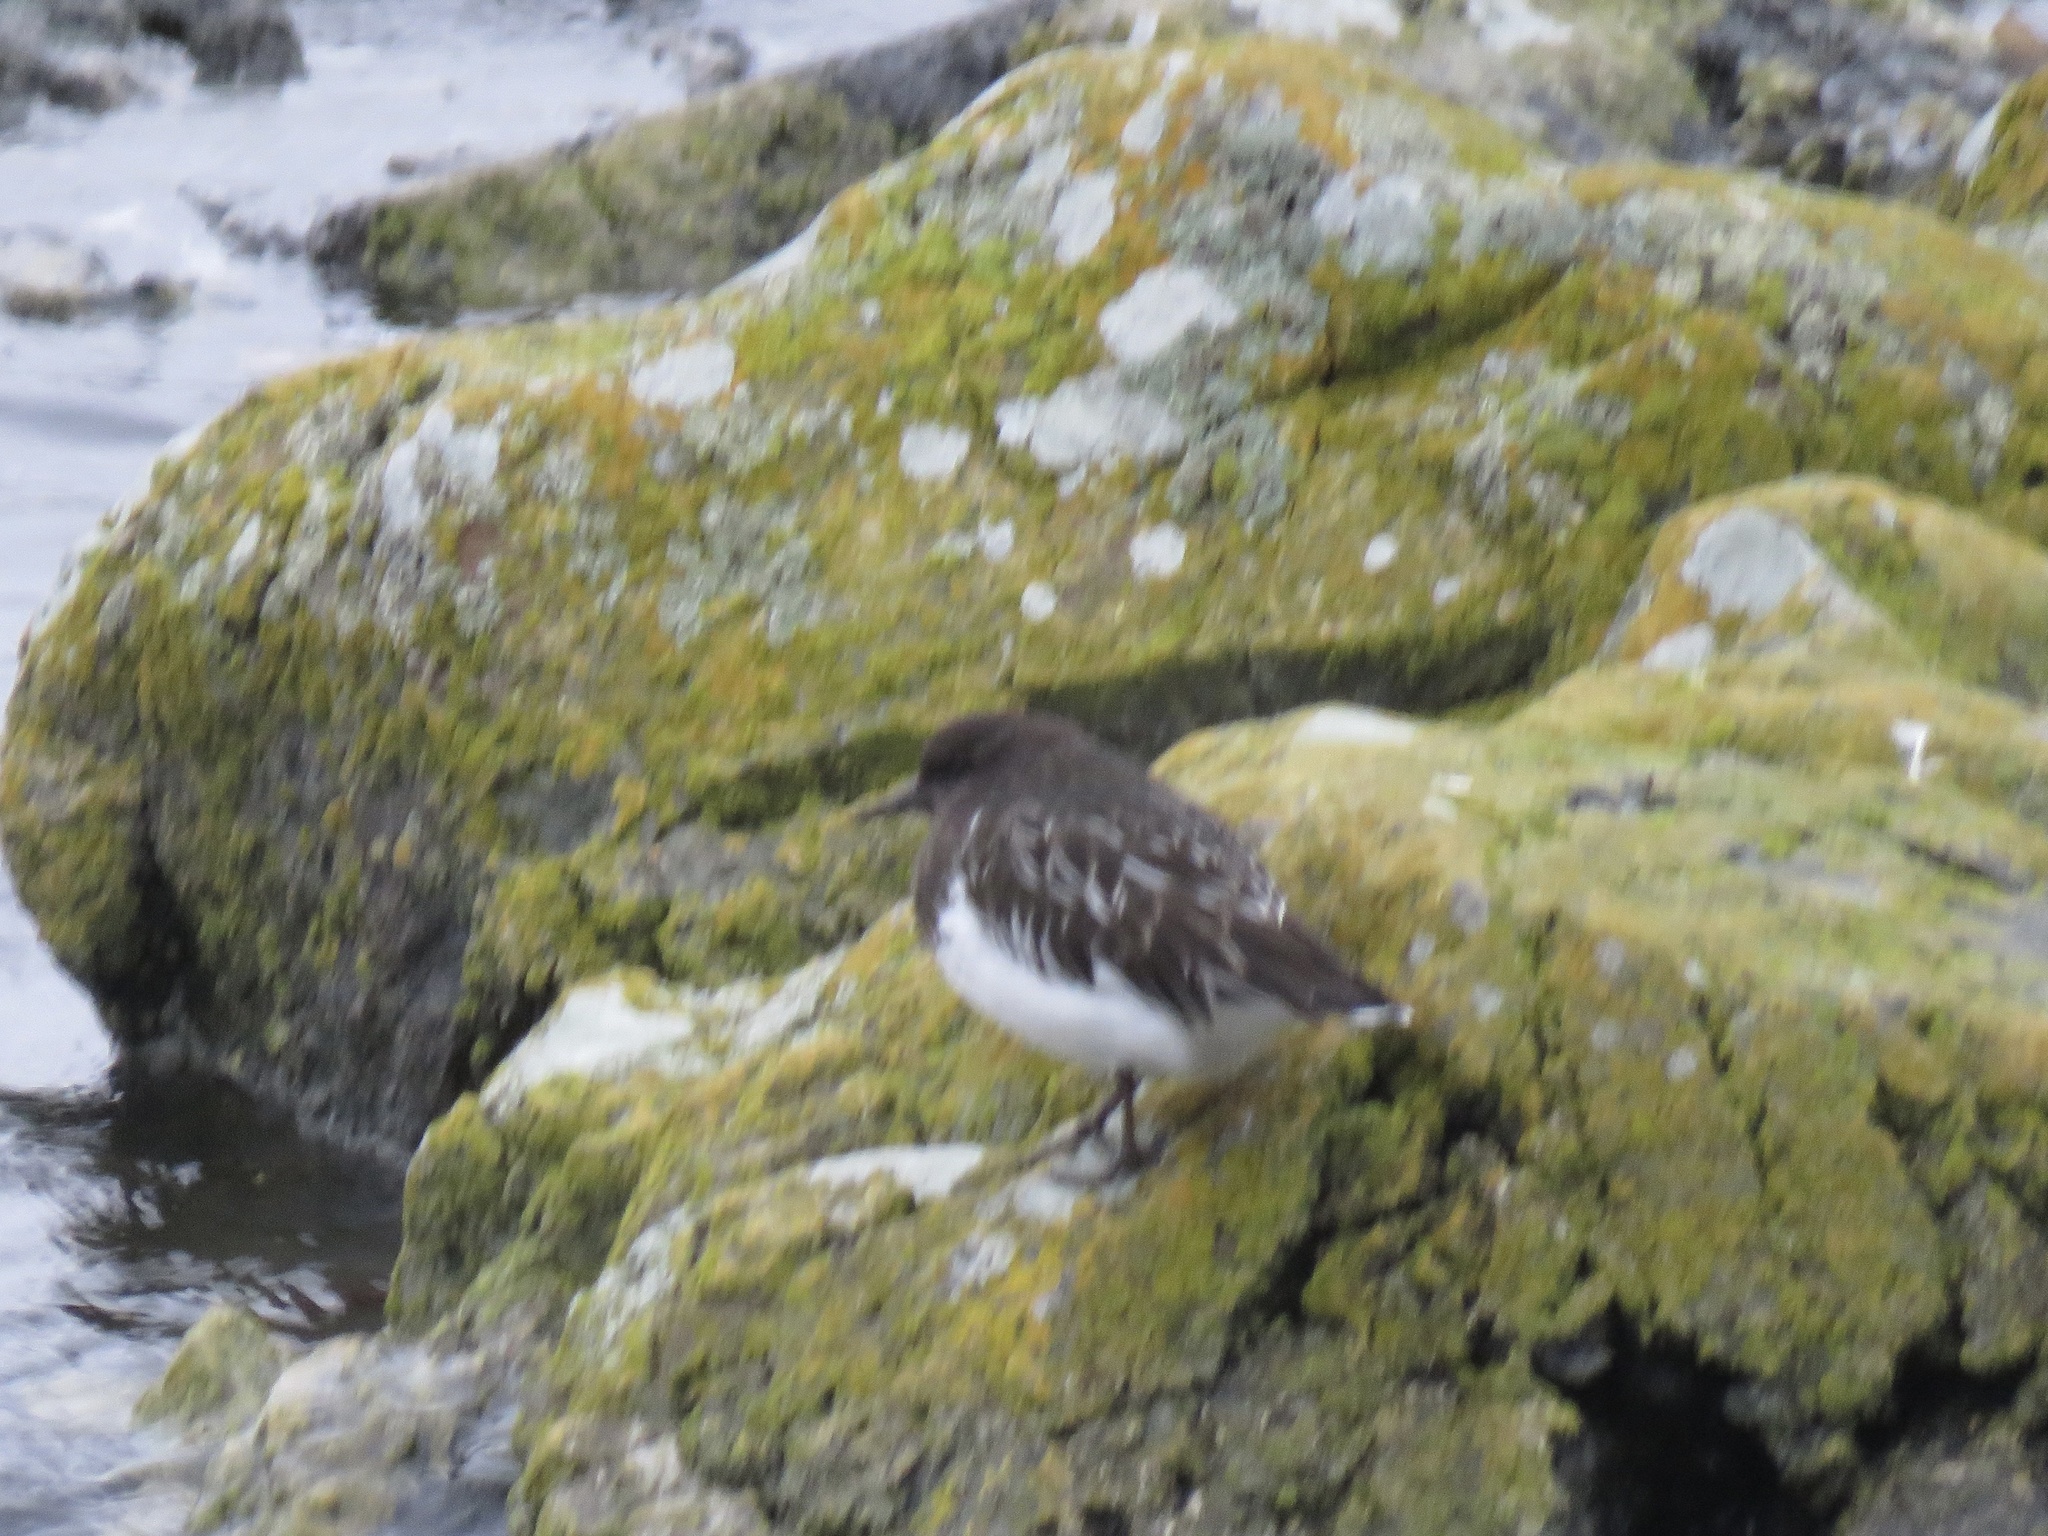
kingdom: Animalia
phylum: Chordata
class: Aves
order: Charadriiformes
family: Scolopacidae
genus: Arenaria
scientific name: Arenaria melanocephala
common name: Black turnstone
